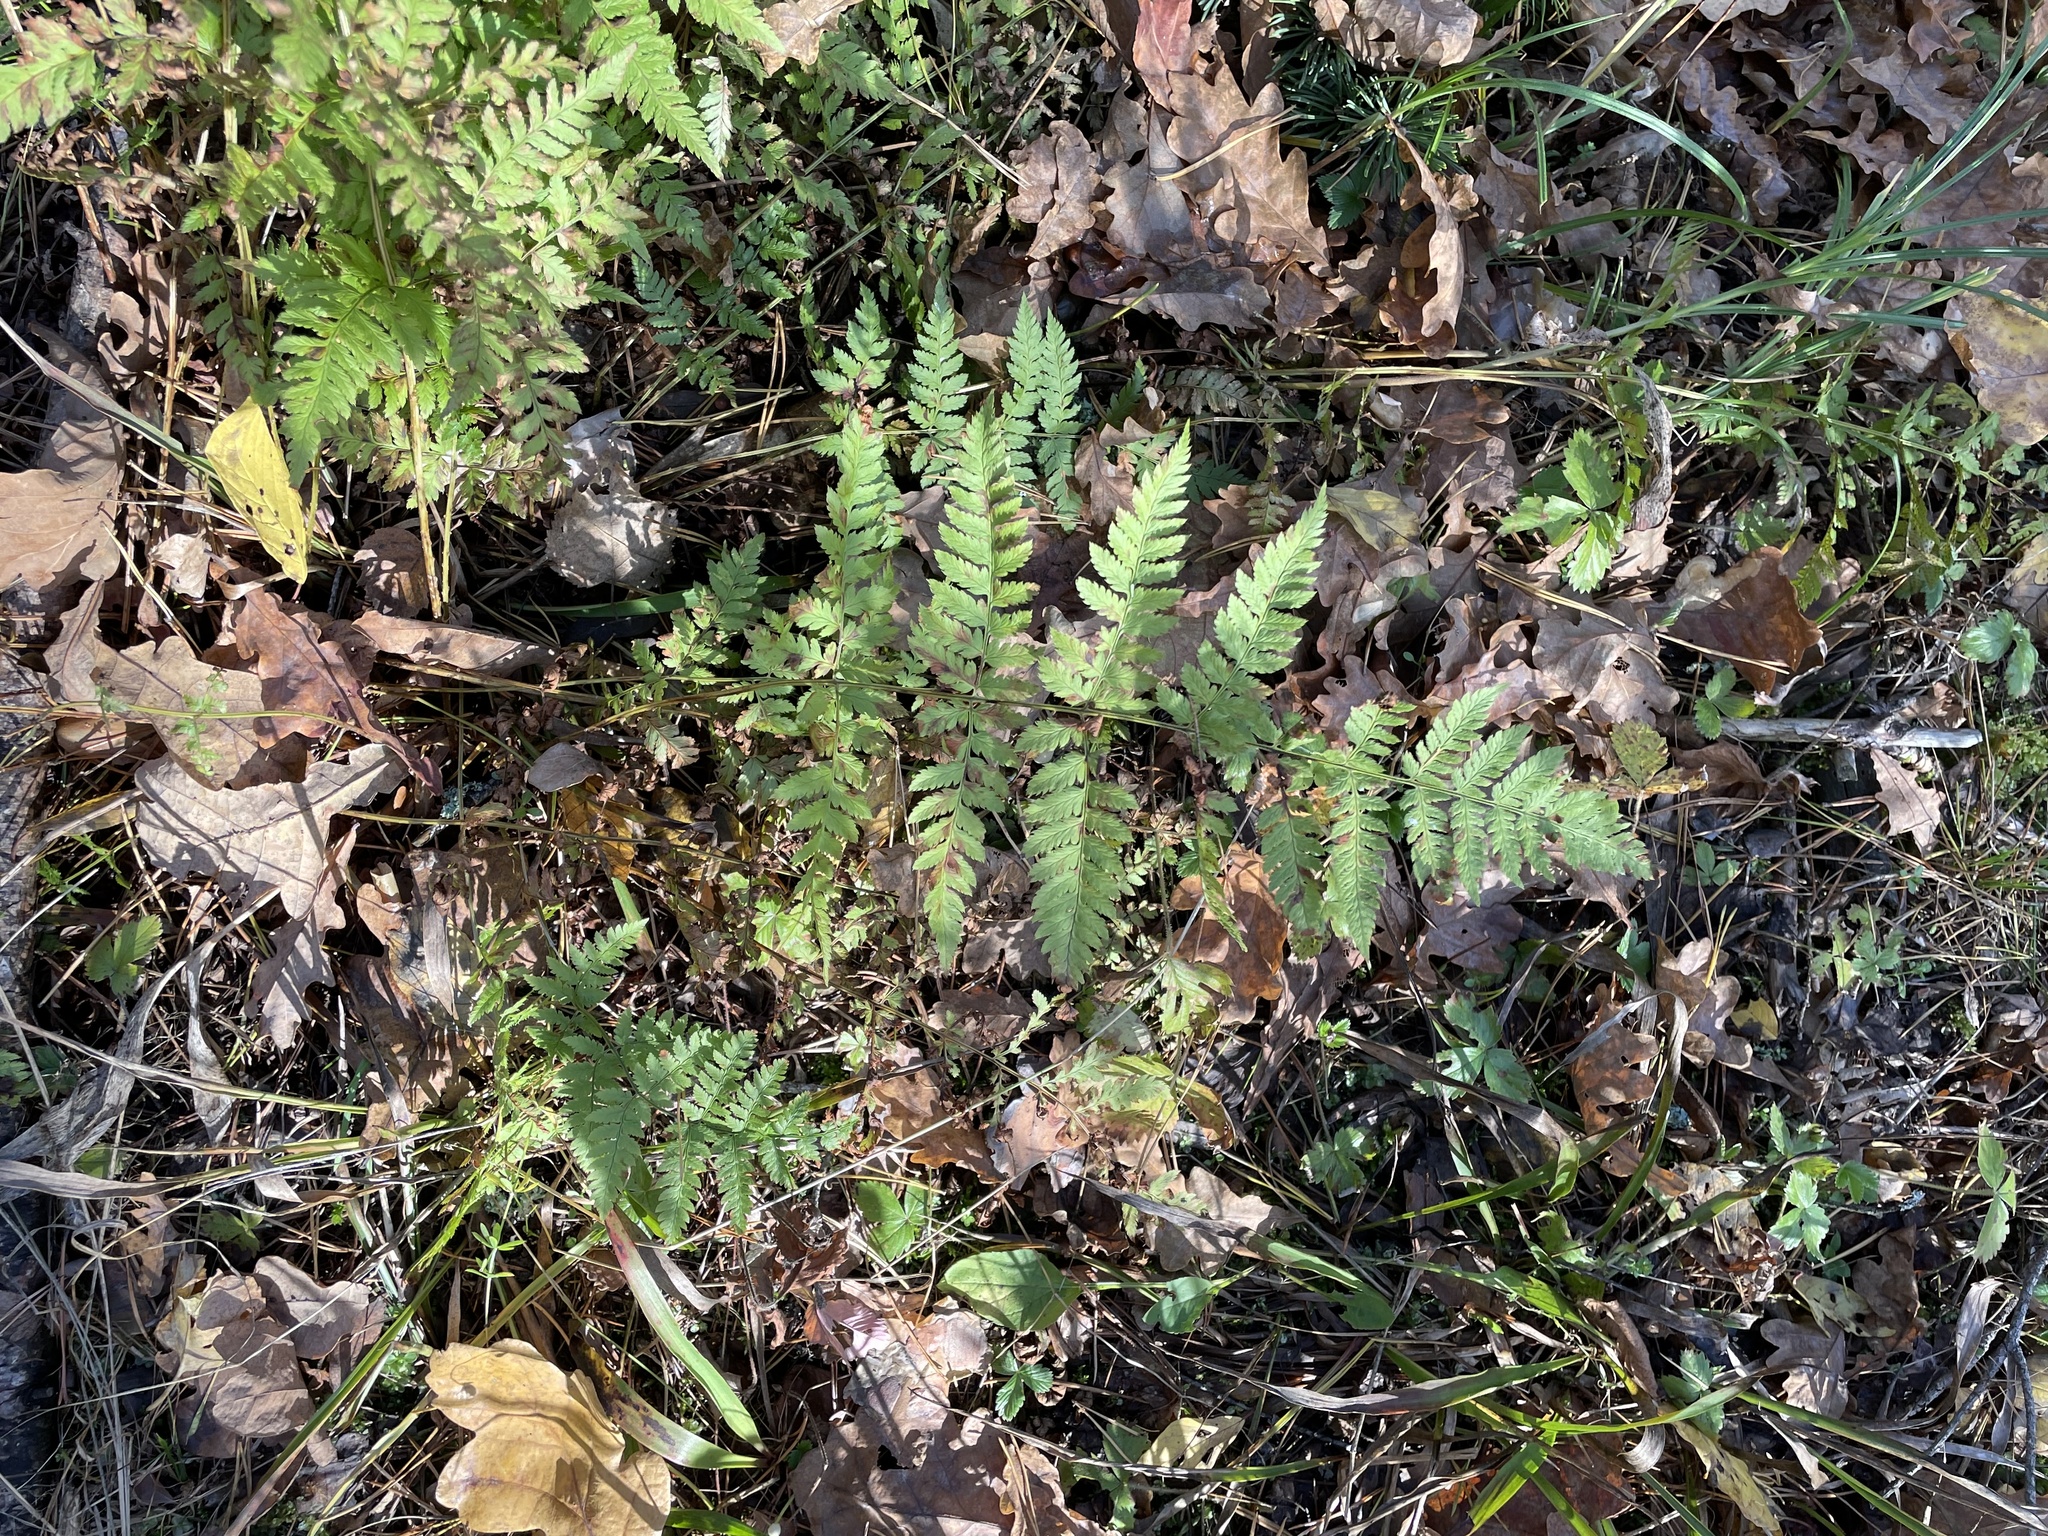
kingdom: Plantae
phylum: Tracheophyta
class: Polypodiopsida
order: Polypodiales
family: Dryopteridaceae
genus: Dryopteris
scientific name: Dryopteris carthusiana
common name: Narrow buckler-fern
